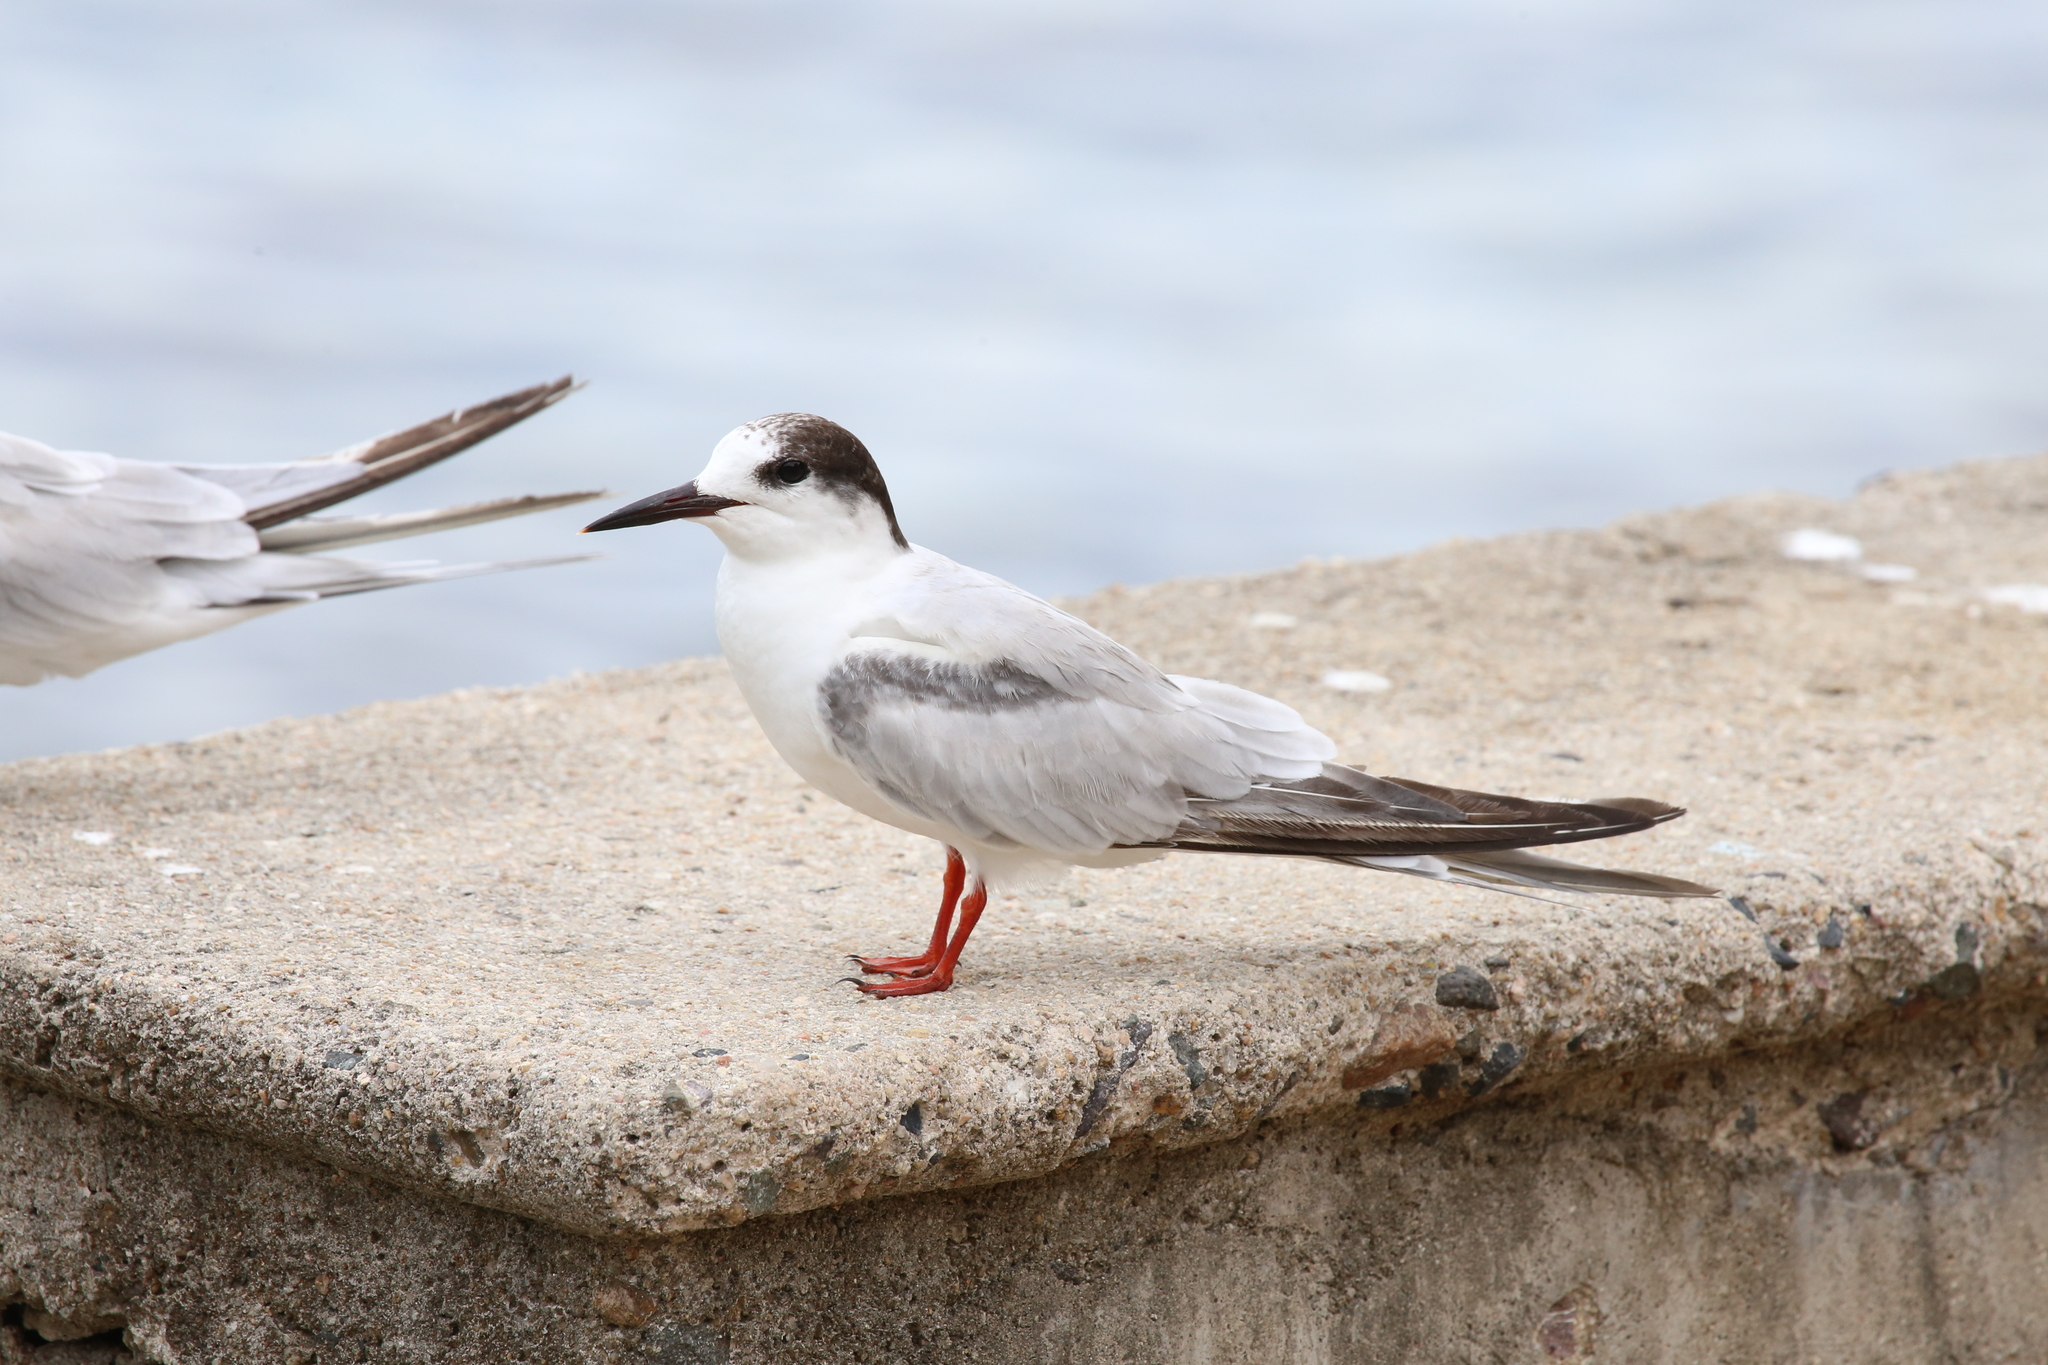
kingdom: Animalia
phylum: Chordata
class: Aves
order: Charadriiformes
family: Laridae
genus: Sterna
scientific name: Sterna hirundo
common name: Common tern
